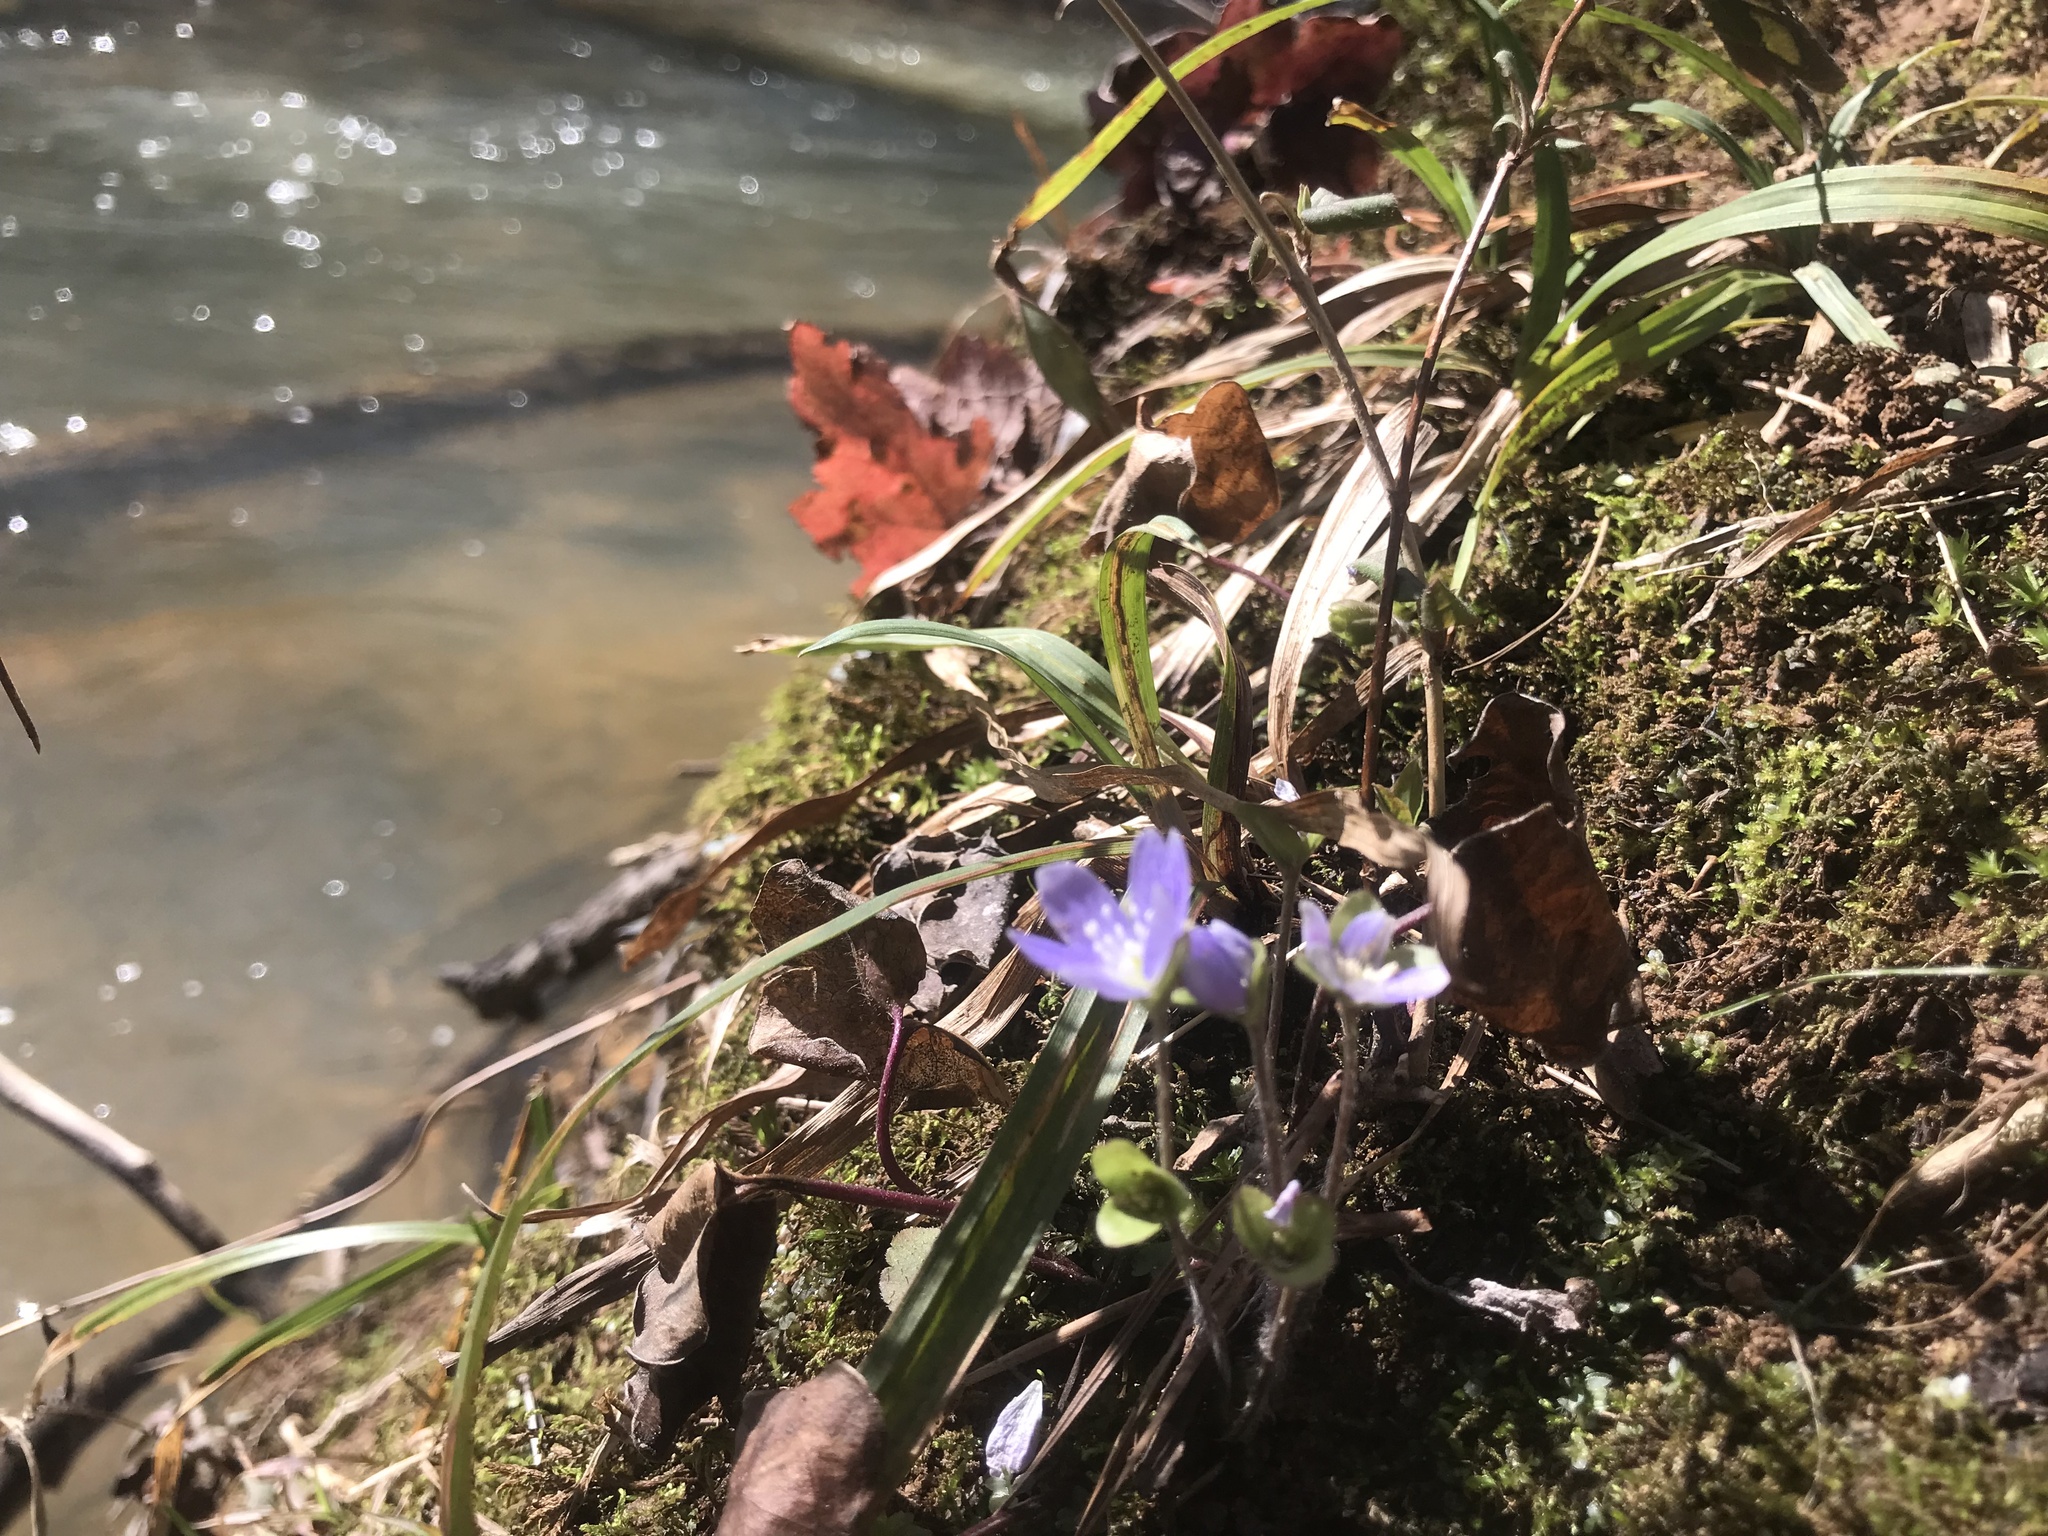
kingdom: Plantae
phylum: Tracheophyta
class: Magnoliopsida
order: Ranunculales
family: Ranunculaceae
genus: Hepatica
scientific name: Hepatica americana
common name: American hepatica
